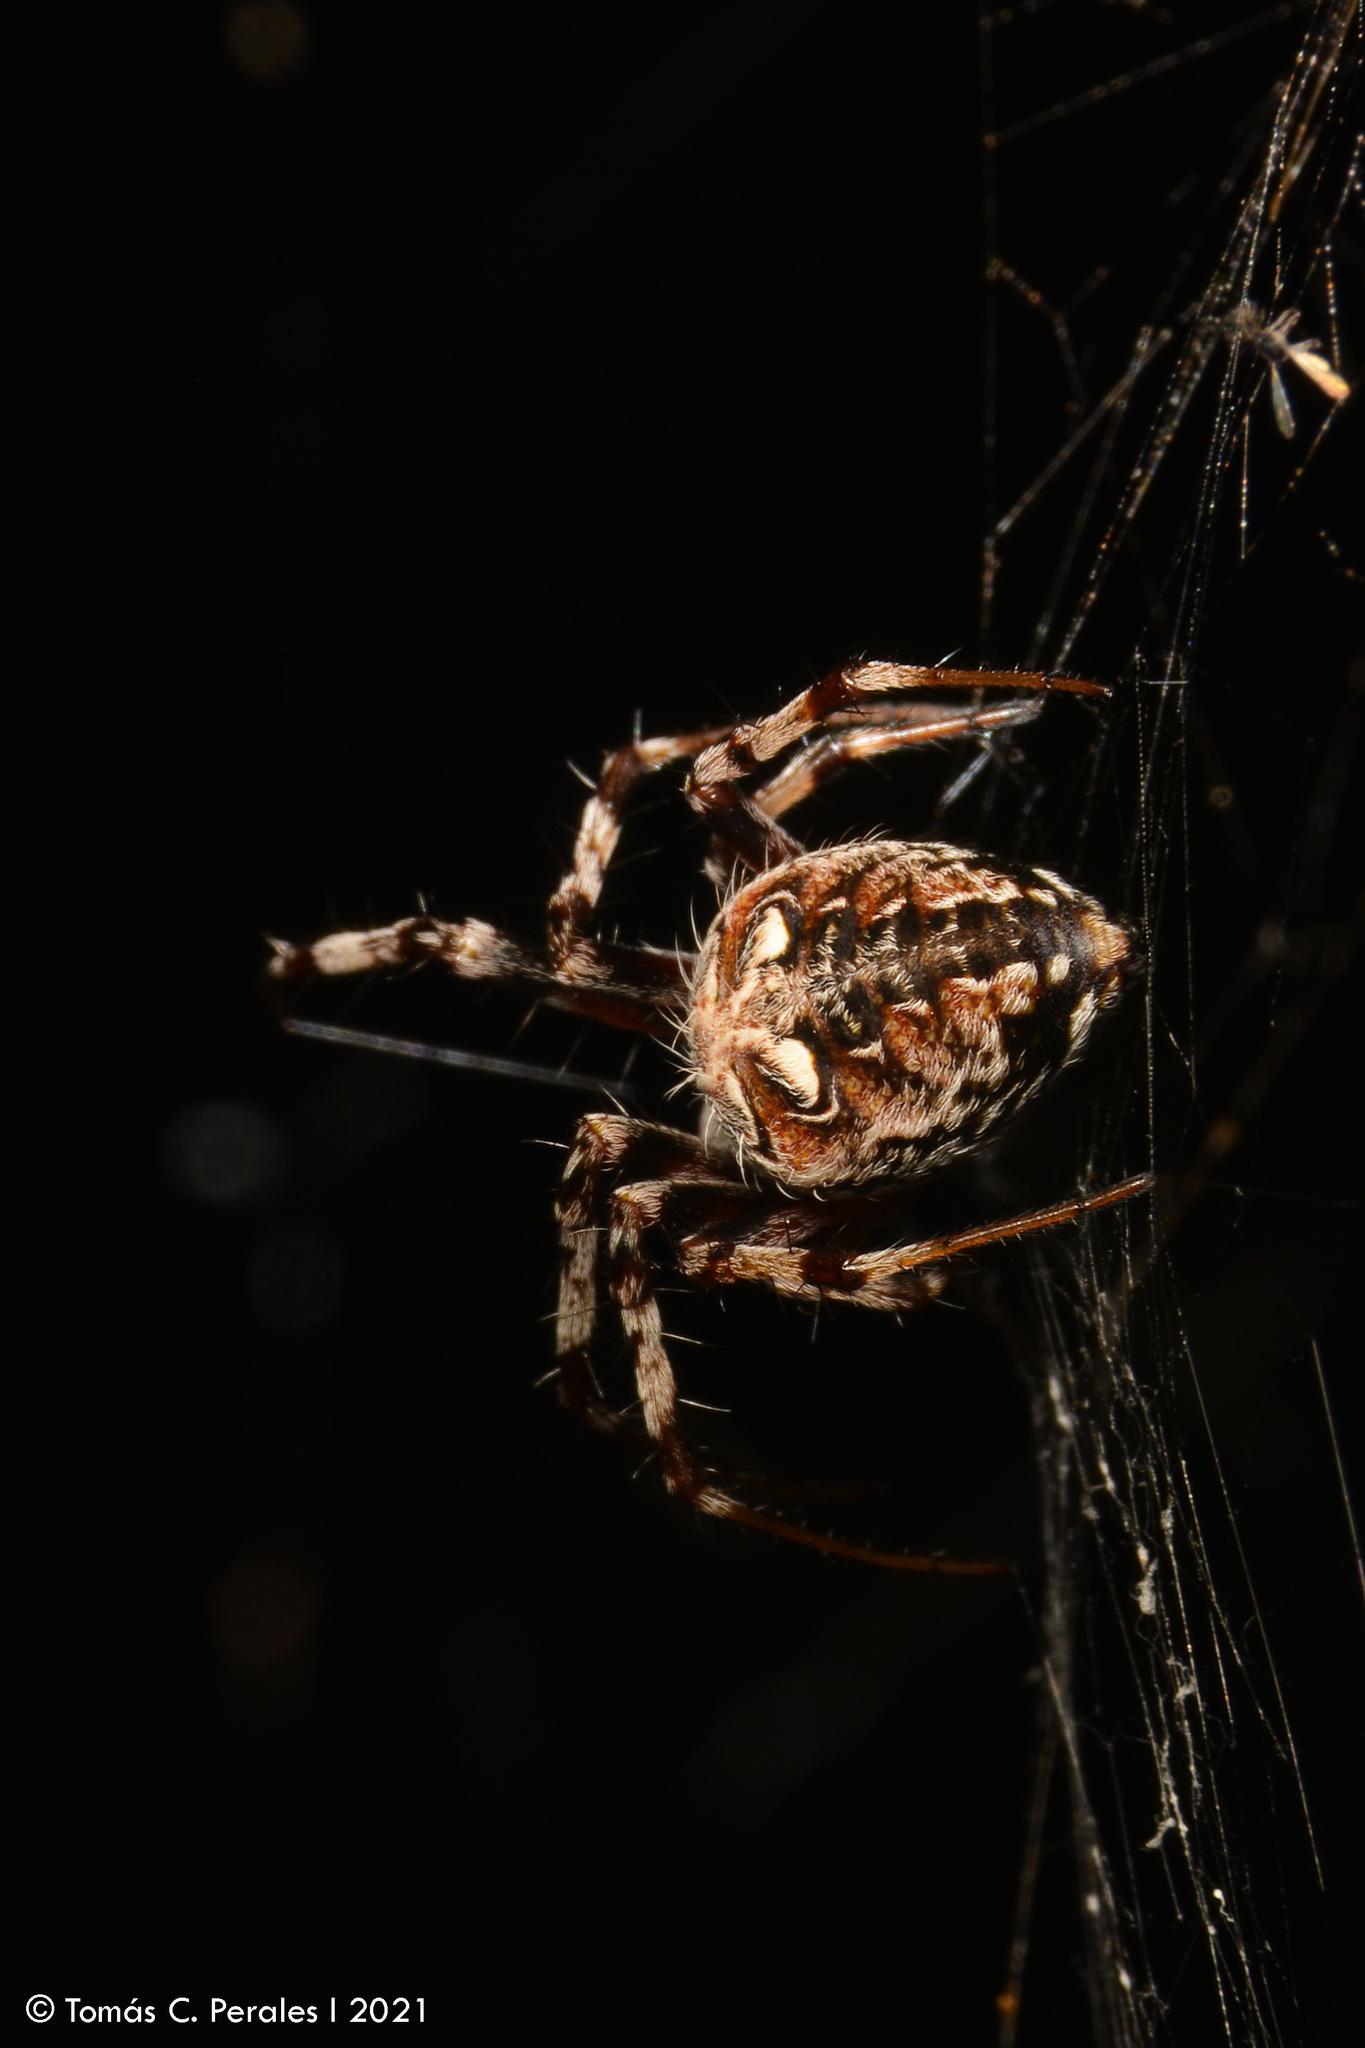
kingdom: Animalia
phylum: Arthropoda
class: Arachnida
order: Araneae
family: Araneidae
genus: Metepeira
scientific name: Metepeira
